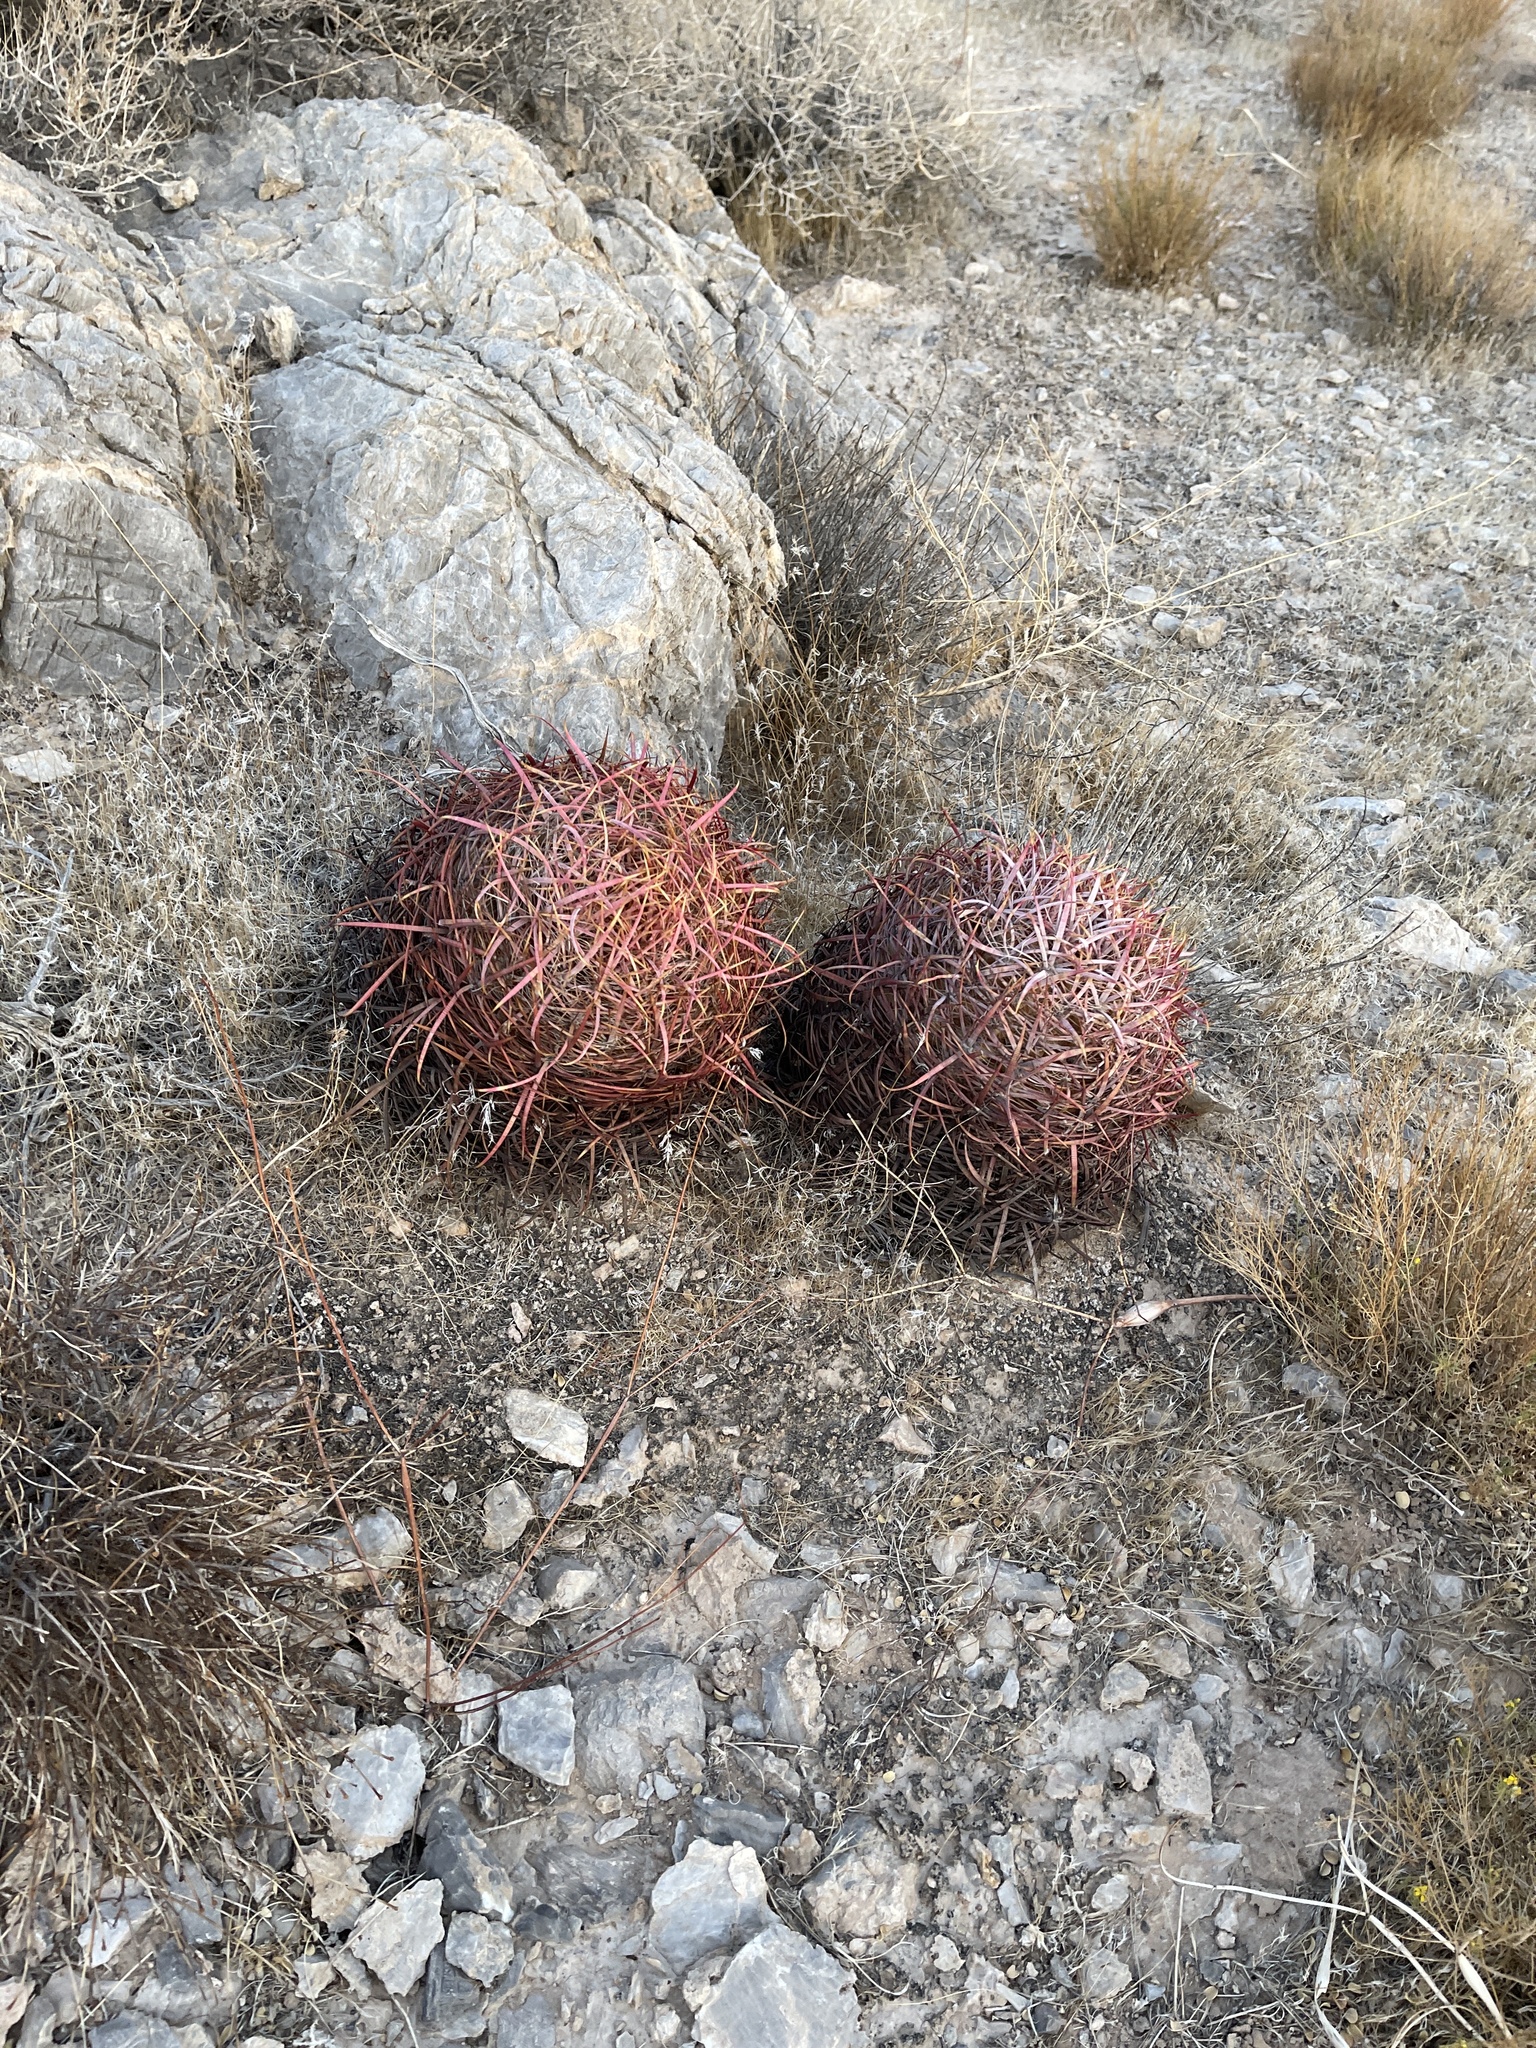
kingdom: Plantae
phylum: Tracheophyta
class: Magnoliopsida
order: Caryophyllales
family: Cactaceae
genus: Ferocactus
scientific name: Ferocactus cylindraceus
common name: California barrel cactus
